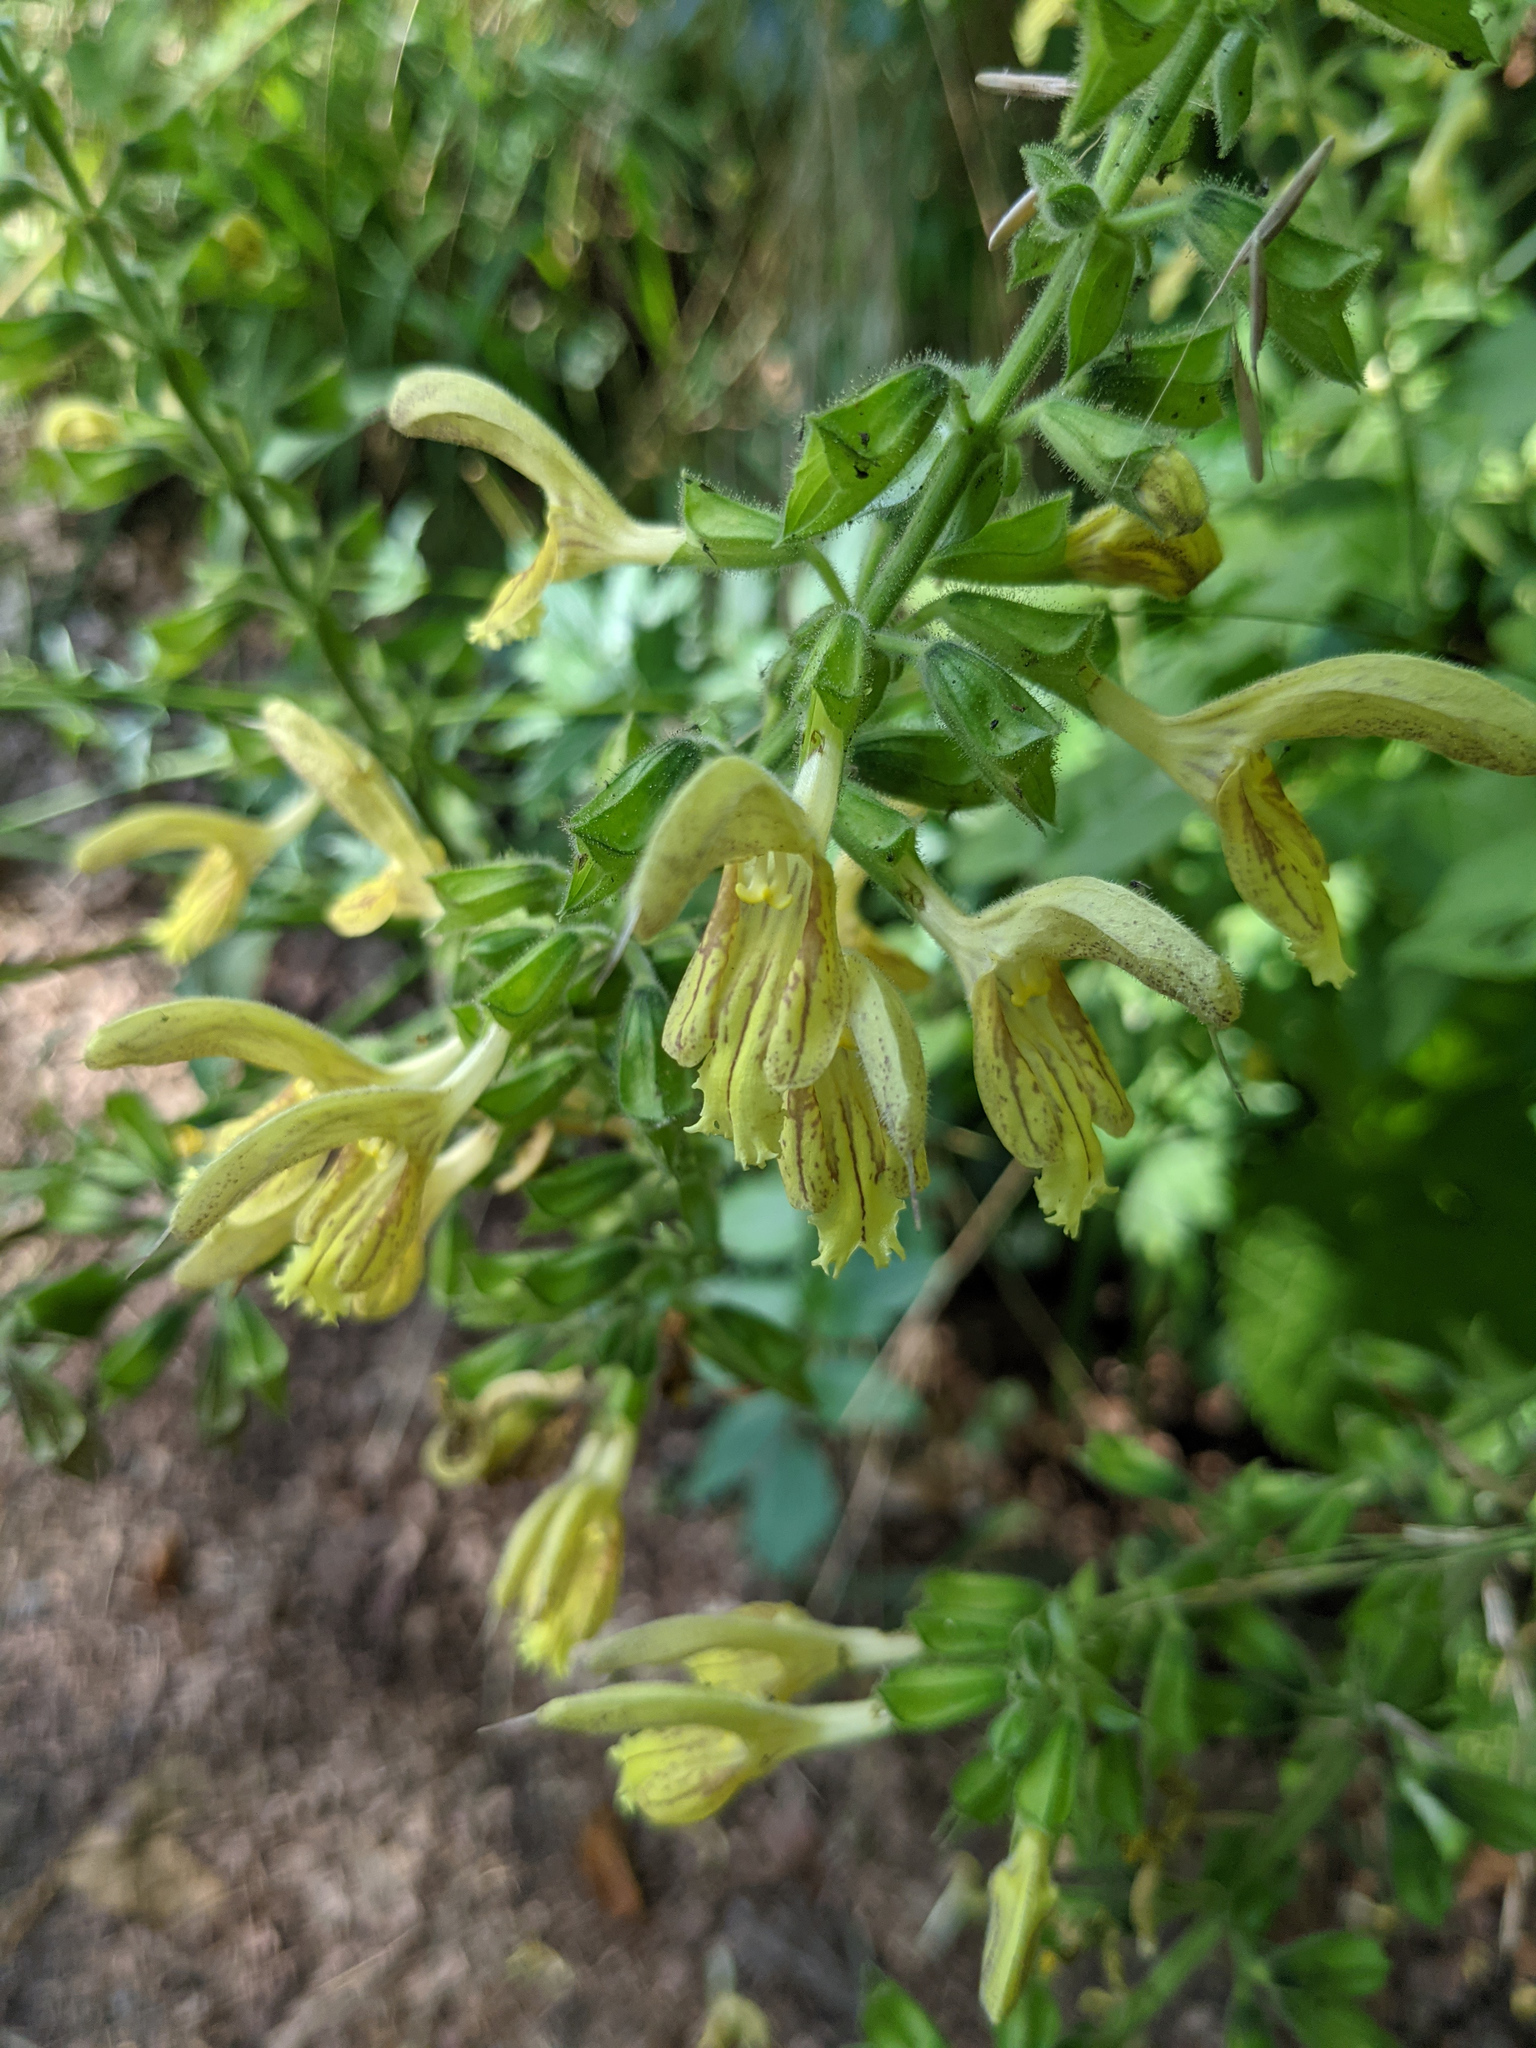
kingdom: Plantae
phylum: Tracheophyta
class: Magnoliopsida
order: Lamiales
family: Lamiaceae
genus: Salvia
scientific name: Salvia glutinosa
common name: Sticky clary
